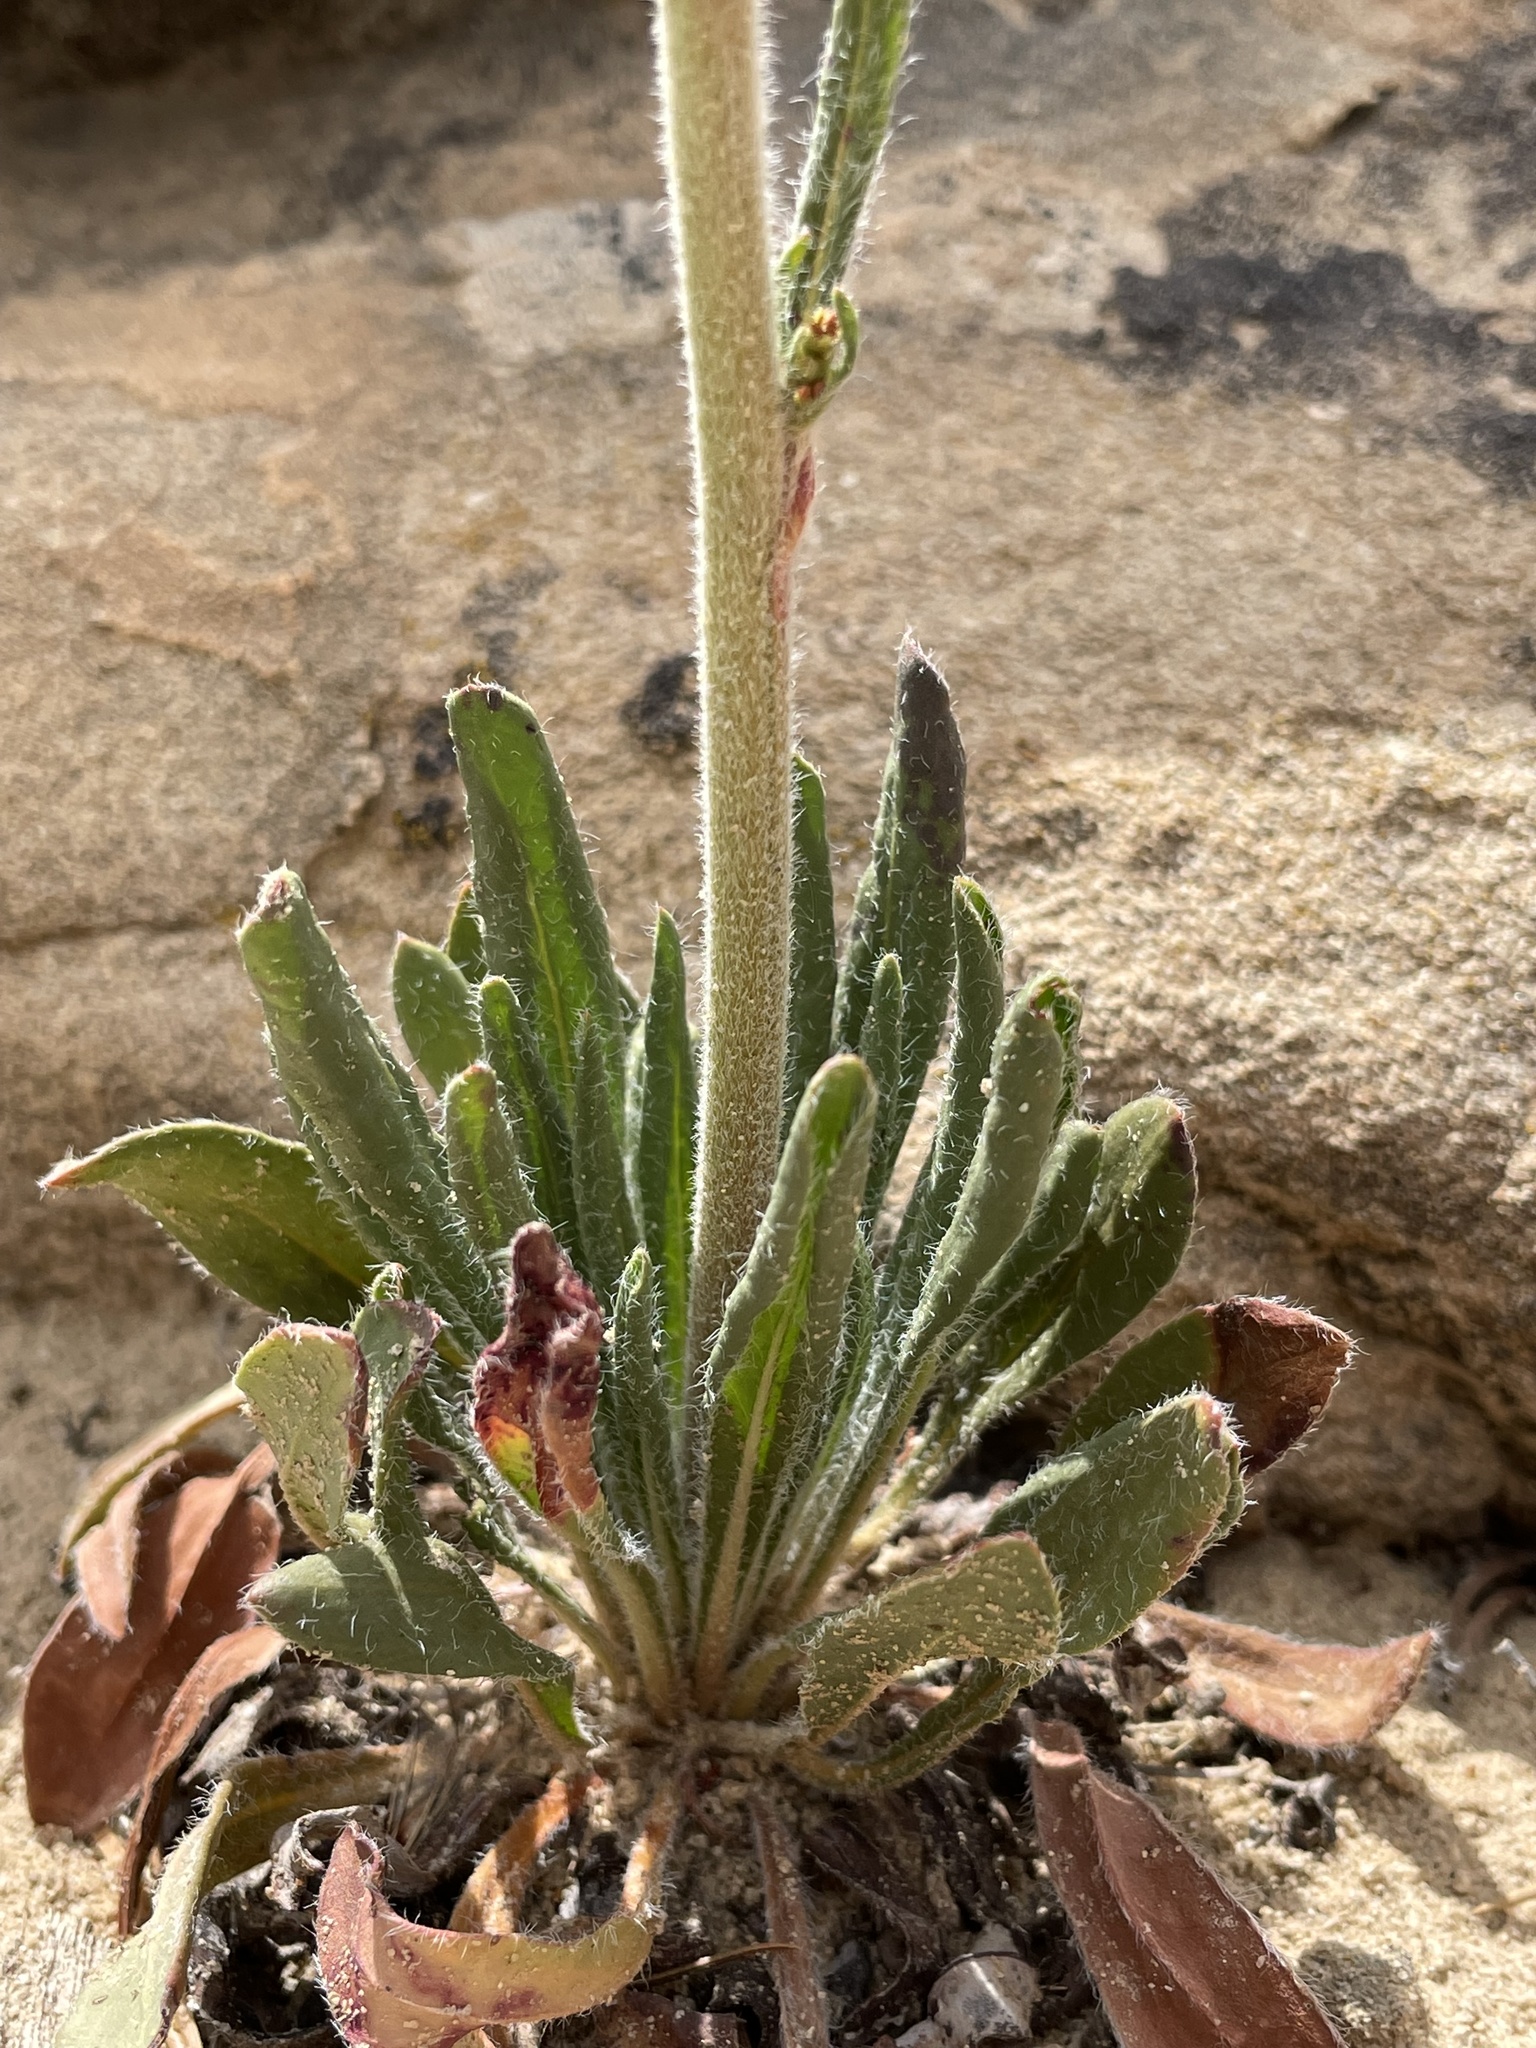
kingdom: Plantae
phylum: Tracheophyta
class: Magnoliopsida
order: Caryophyllales
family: Polygonaceae
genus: Eriogonum
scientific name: Eriogonum alatum
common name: Winged eriogonum
